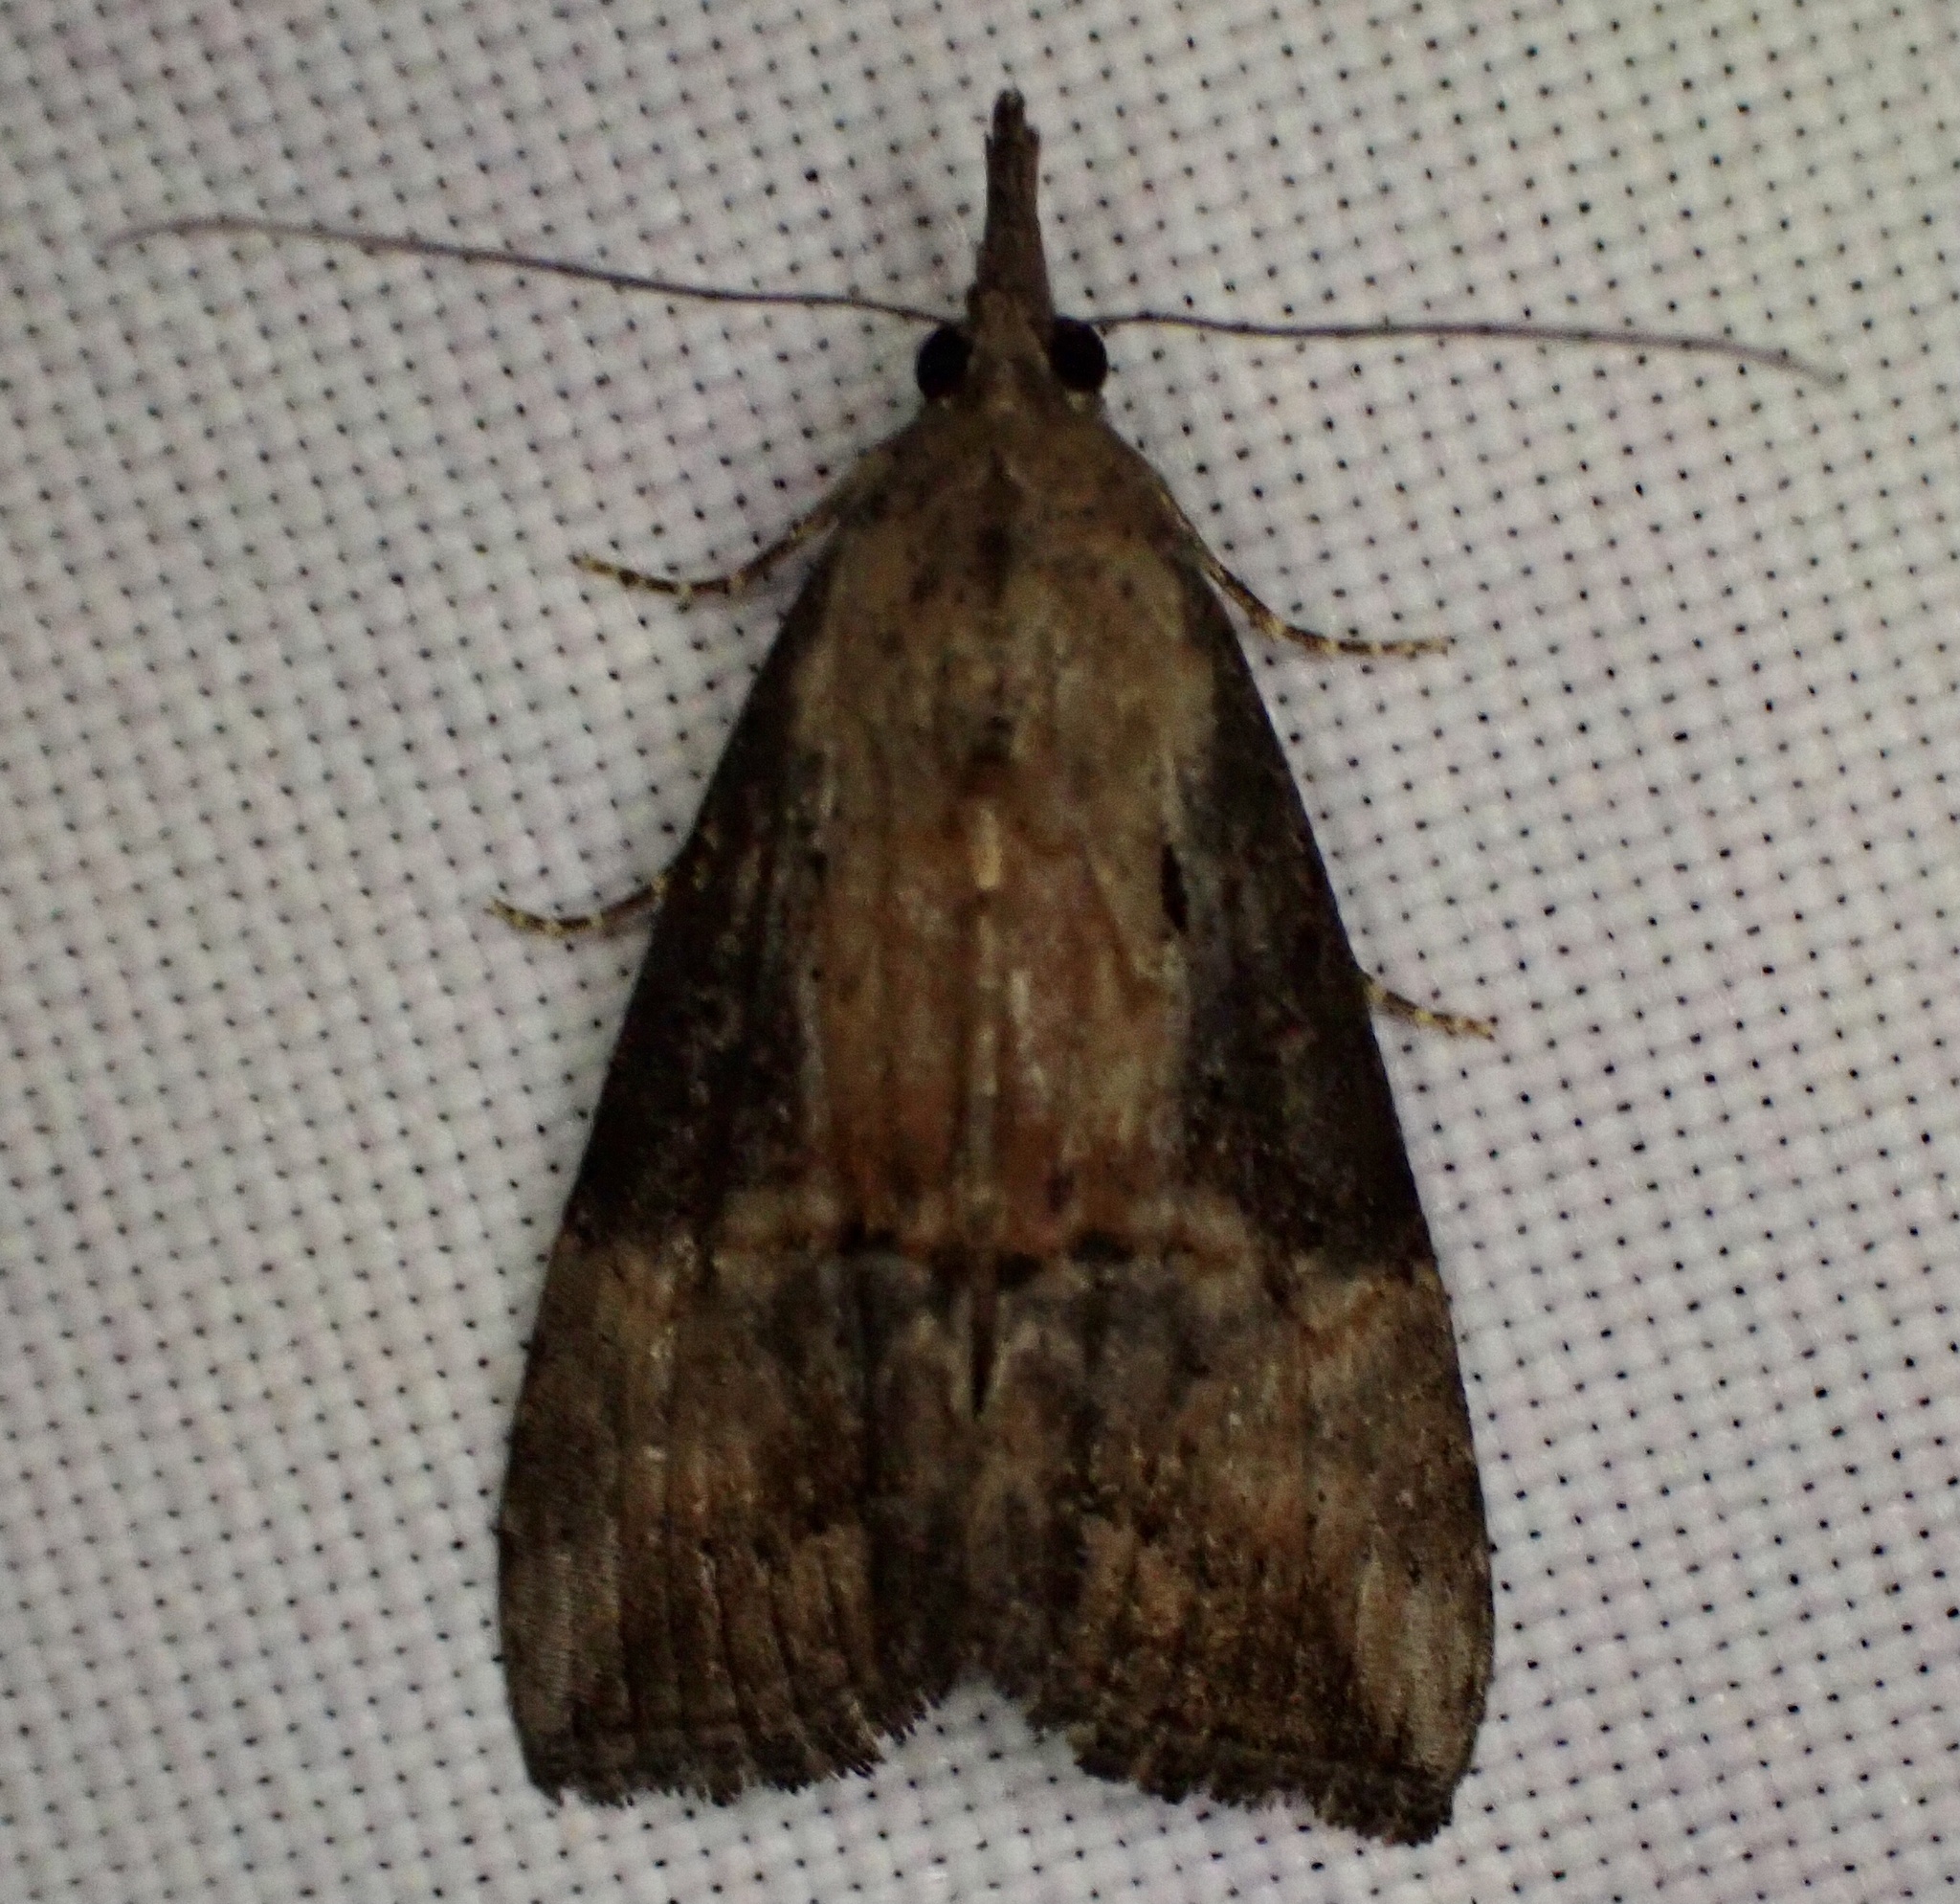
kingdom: Animalia
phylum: Arthropoda
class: Insecta
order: Lepidoptera
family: Erebidae
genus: Hypena
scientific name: Hypena scabra
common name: Green cloverworm
